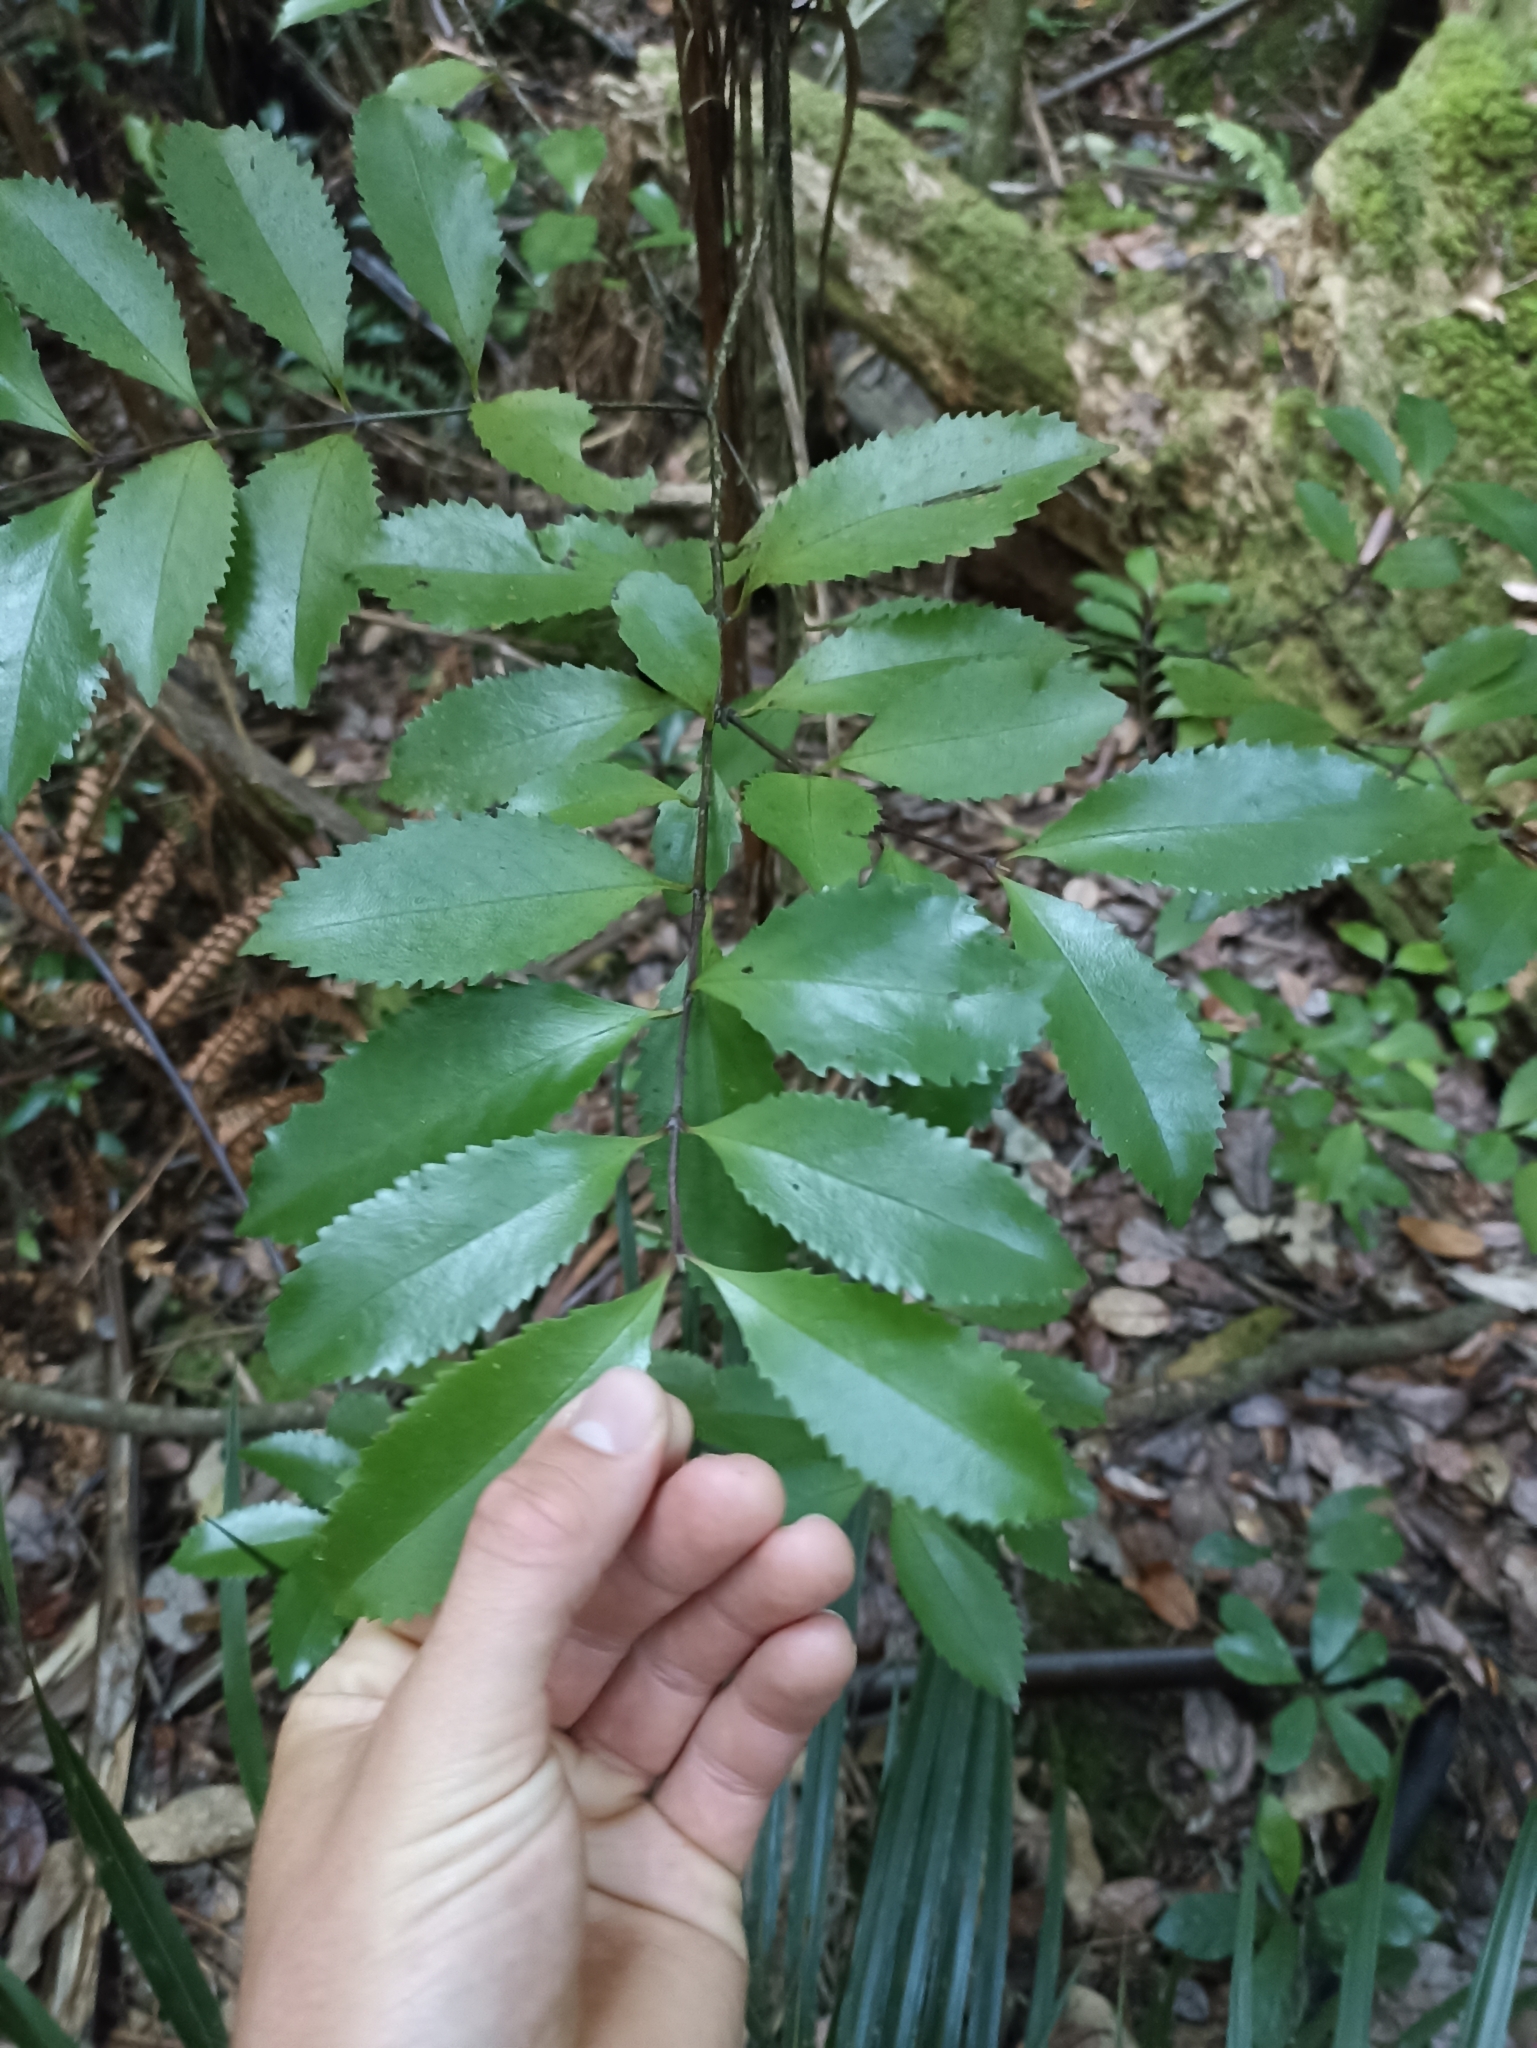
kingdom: Plantae
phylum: Tracheophyta
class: Magnoliopsida
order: Laurales
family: Atherospermataceae
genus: Laurelia
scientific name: Laurelia novae-zelandiae
